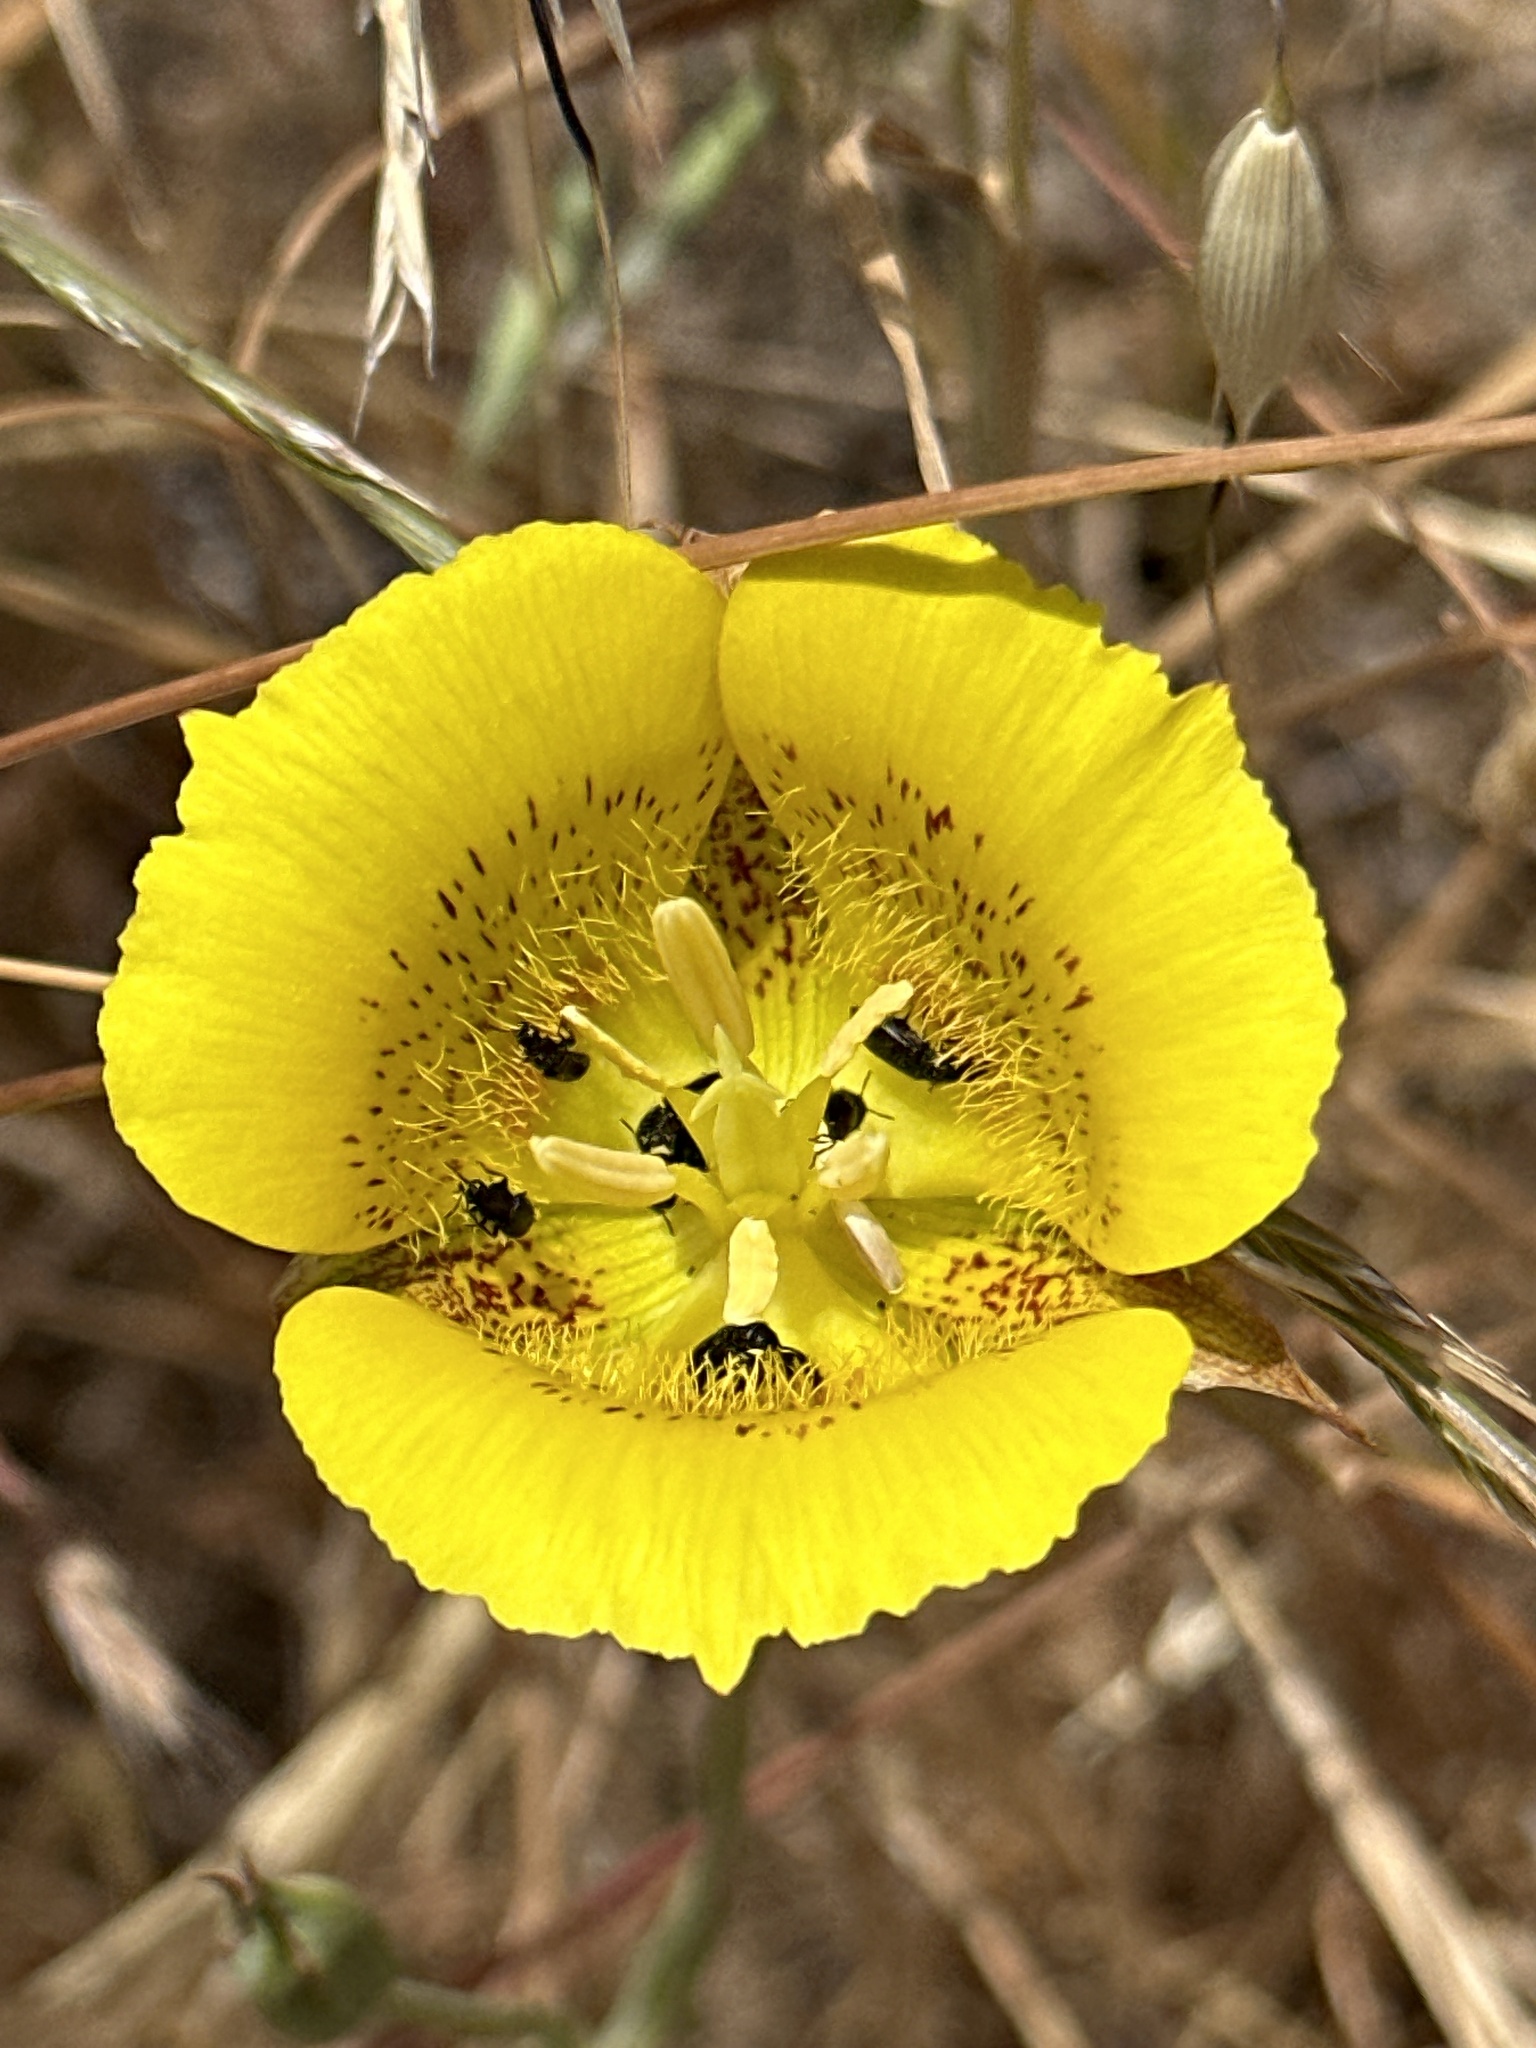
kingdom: Plantae
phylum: Tracheophyta
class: Liliopsida
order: Liliales
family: Liliaceae
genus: Calochortus
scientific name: Calochortus luteus
